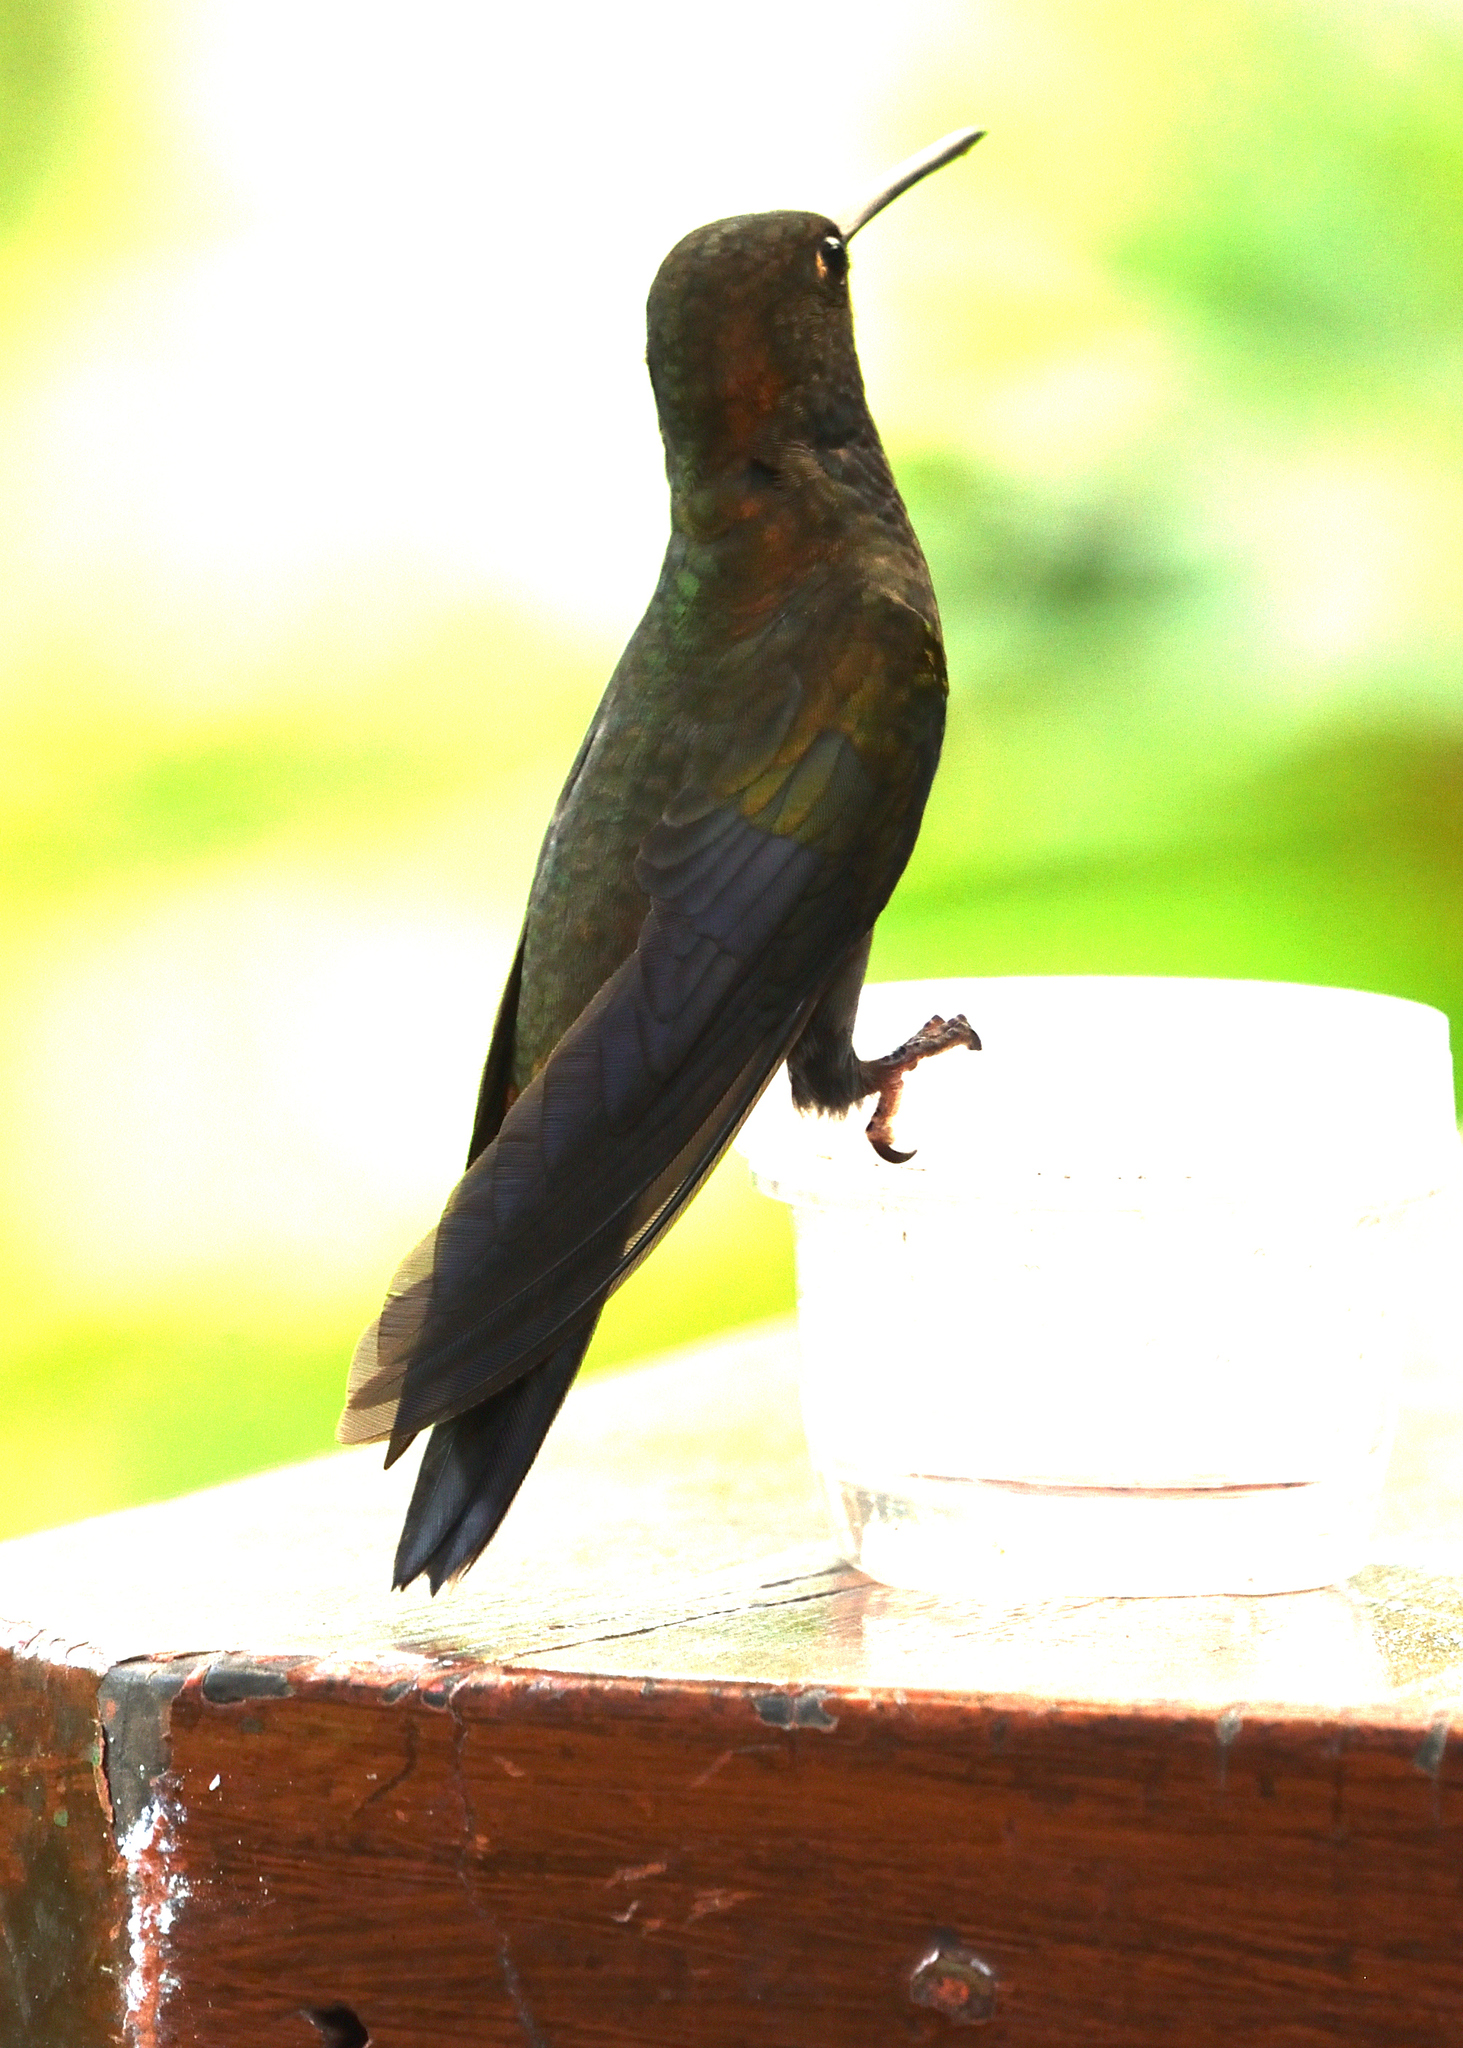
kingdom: Animalia
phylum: Chordata
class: Aves
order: Apodiformes
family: Trochilidae
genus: Urochroa
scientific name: Urochroa bougueri
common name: White-tailed hillstar
